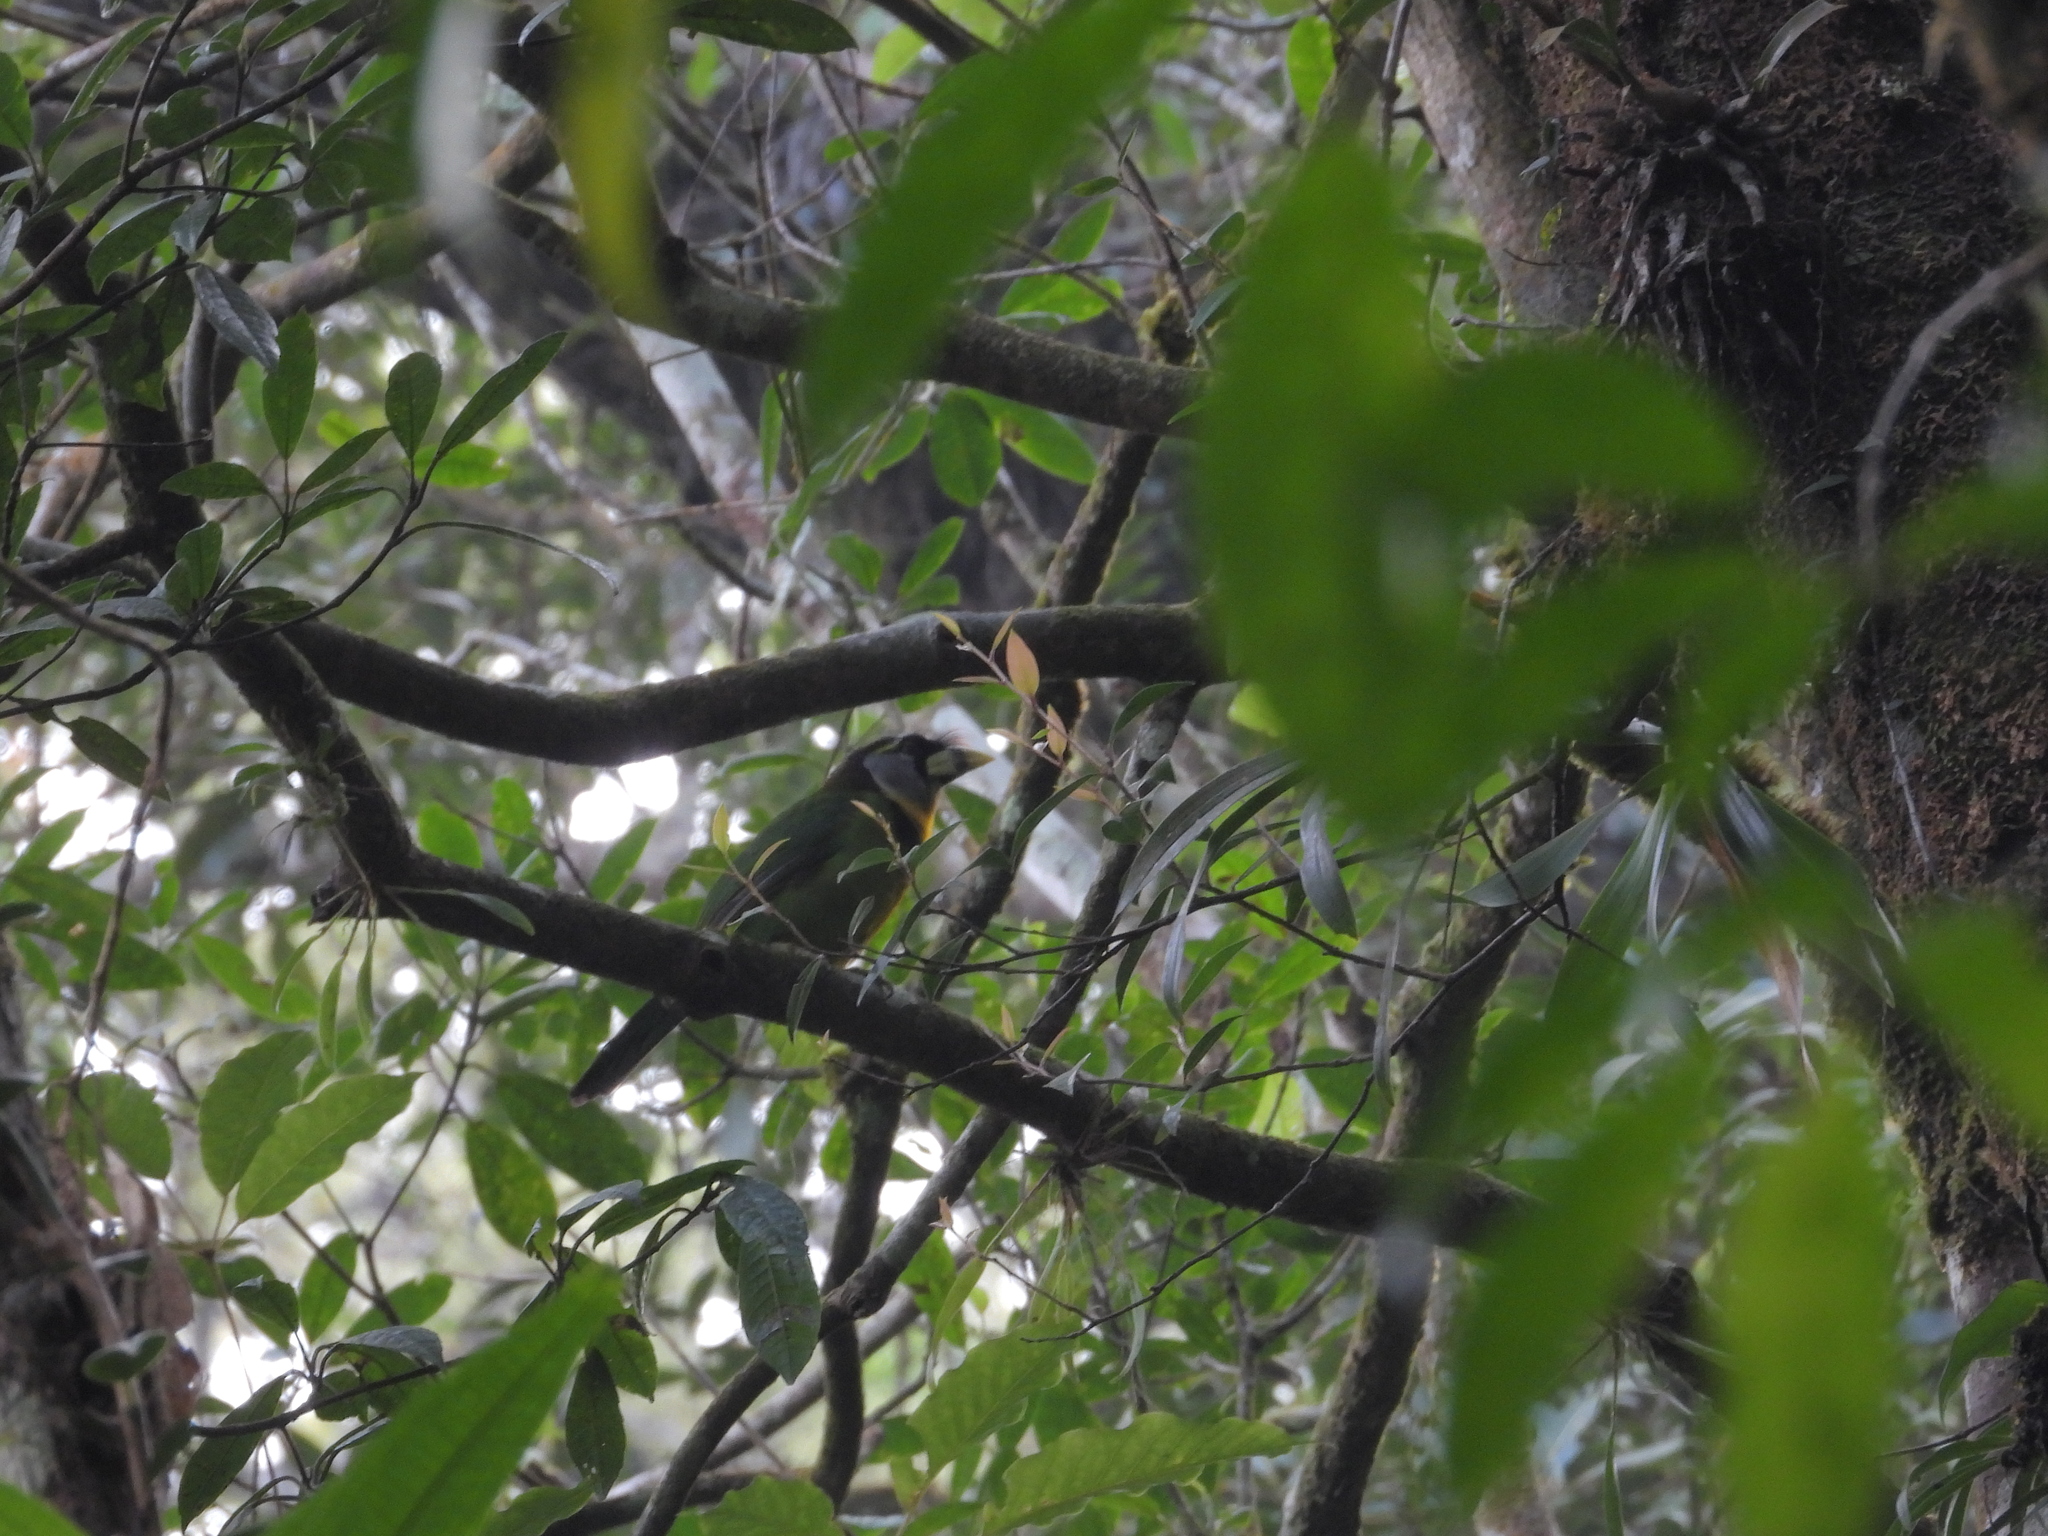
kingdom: Animalia
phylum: Chordata
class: Aves
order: Piciformes
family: Megalaimidae
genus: Psilopogon
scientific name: Psilopogon pyrolophus
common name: Fire-tufted barbet
